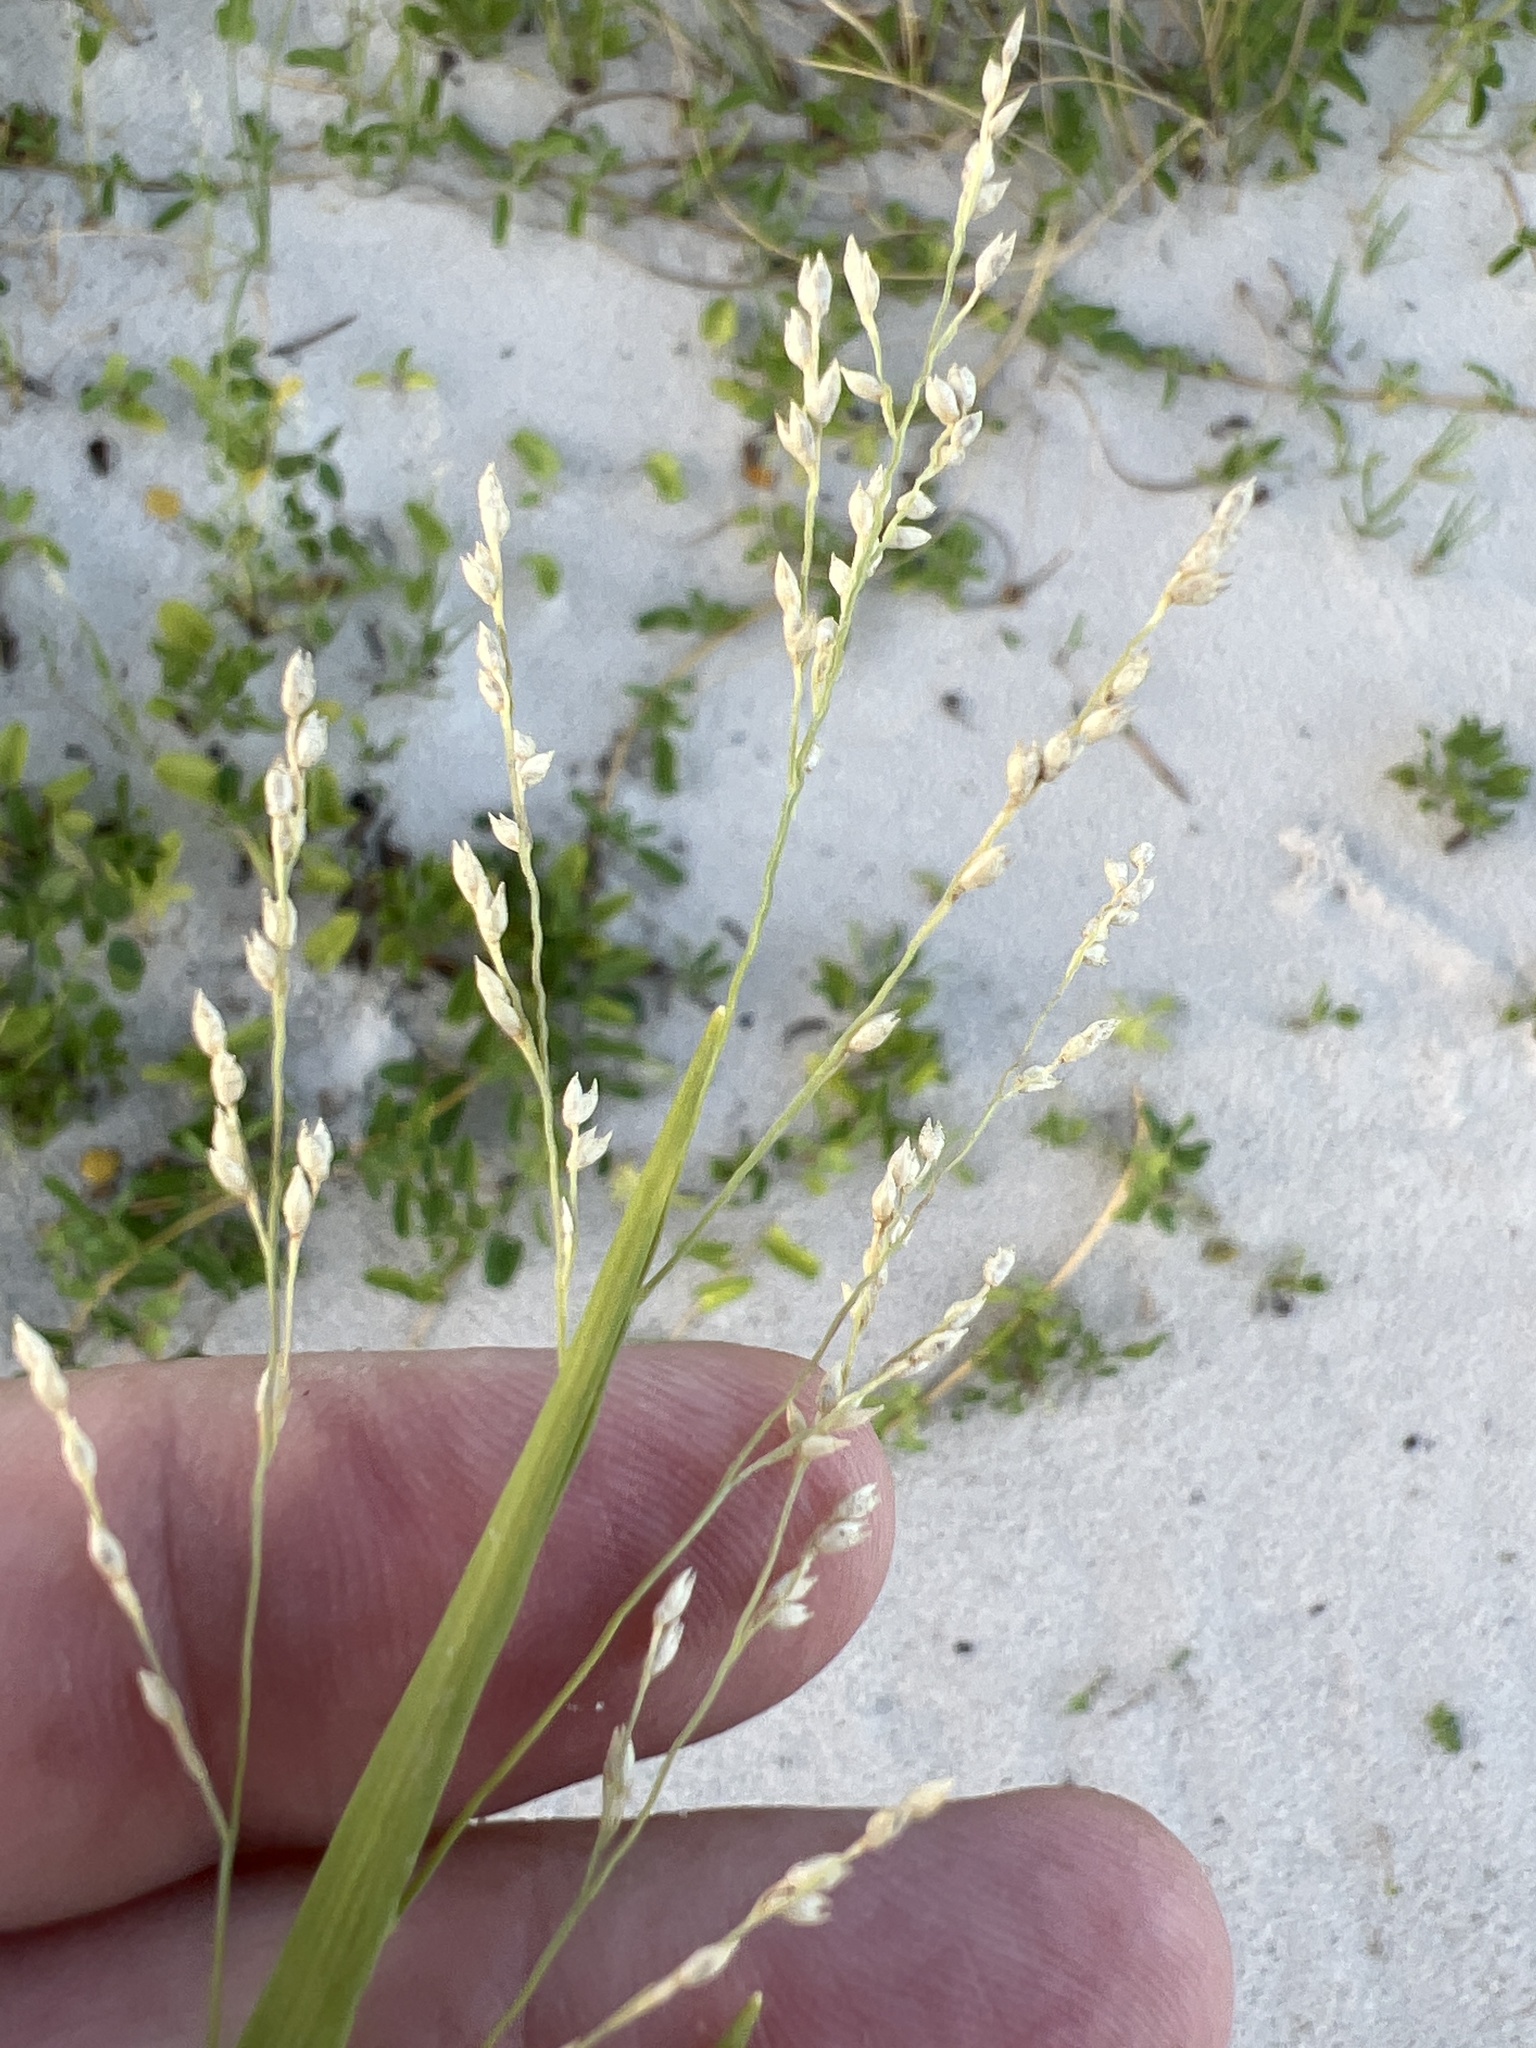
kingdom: Plantae
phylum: Tracheophyta
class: Liliopsida
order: Poales
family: Poaceae
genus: Panicum
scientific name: Panicum repens
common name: Torpedo grass
